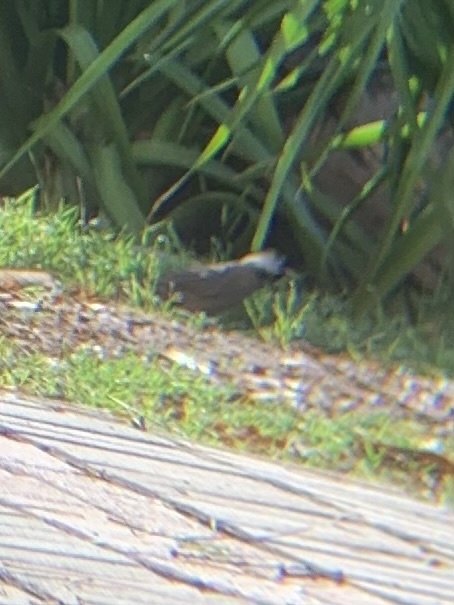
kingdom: Animalia
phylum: Chordata
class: Aves
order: Coliiformes
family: Coliidae
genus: Colius
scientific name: Colius striatus
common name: Speckled mousebird
